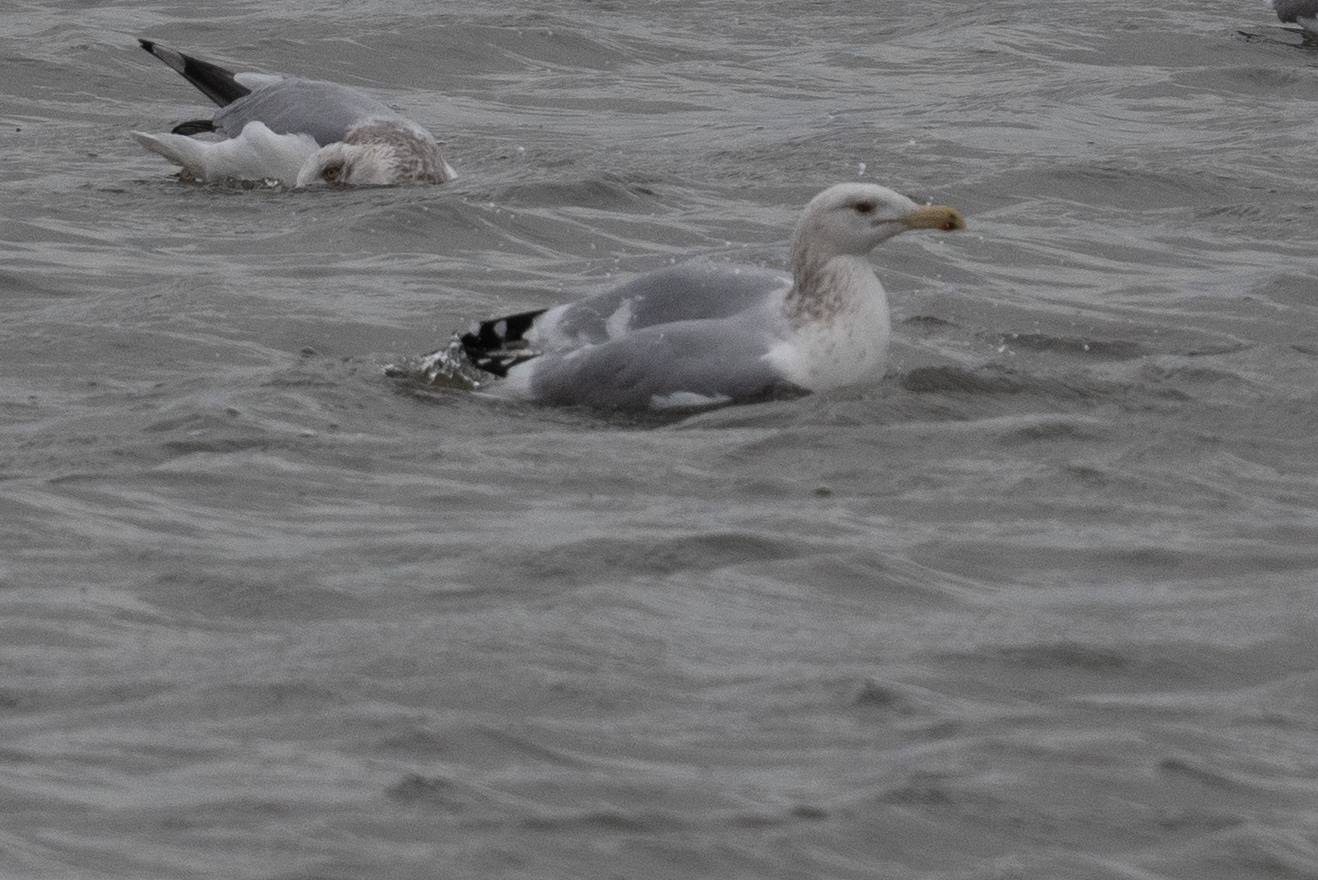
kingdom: Animalia
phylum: Chordata
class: Aves
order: Charadriiformes
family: Laridae
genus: Larus
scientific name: Larus argentatus
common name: Herring gull
